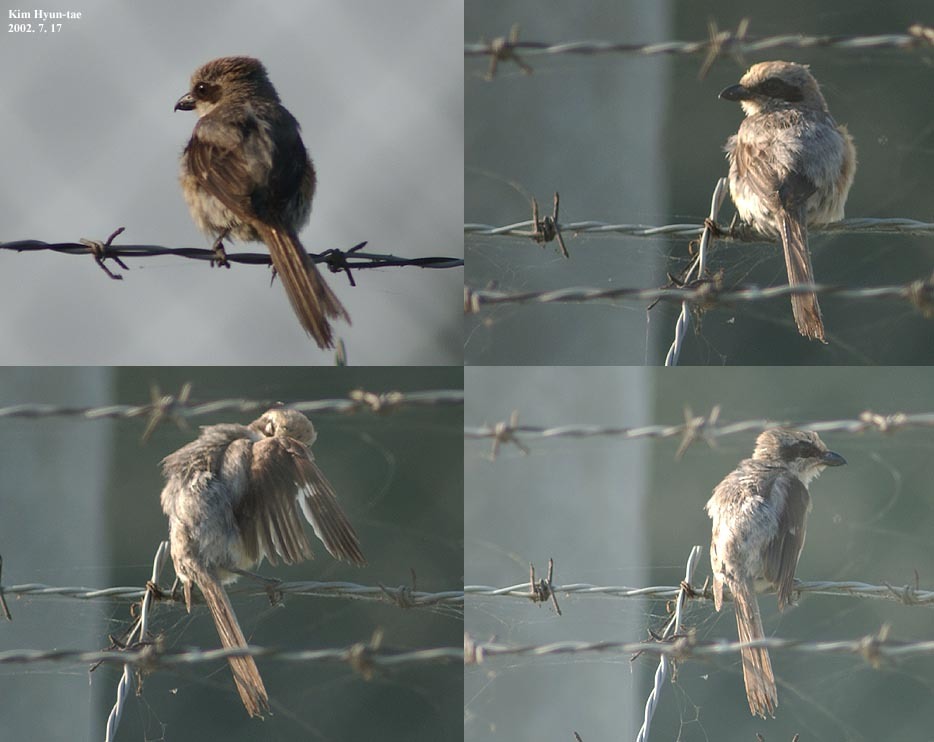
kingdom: Animalia
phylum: Chordata
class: Aves
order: Passeriformes
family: Laniidae
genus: Lanius
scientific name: Lanius bucephalus
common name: Bull-headed shrike
